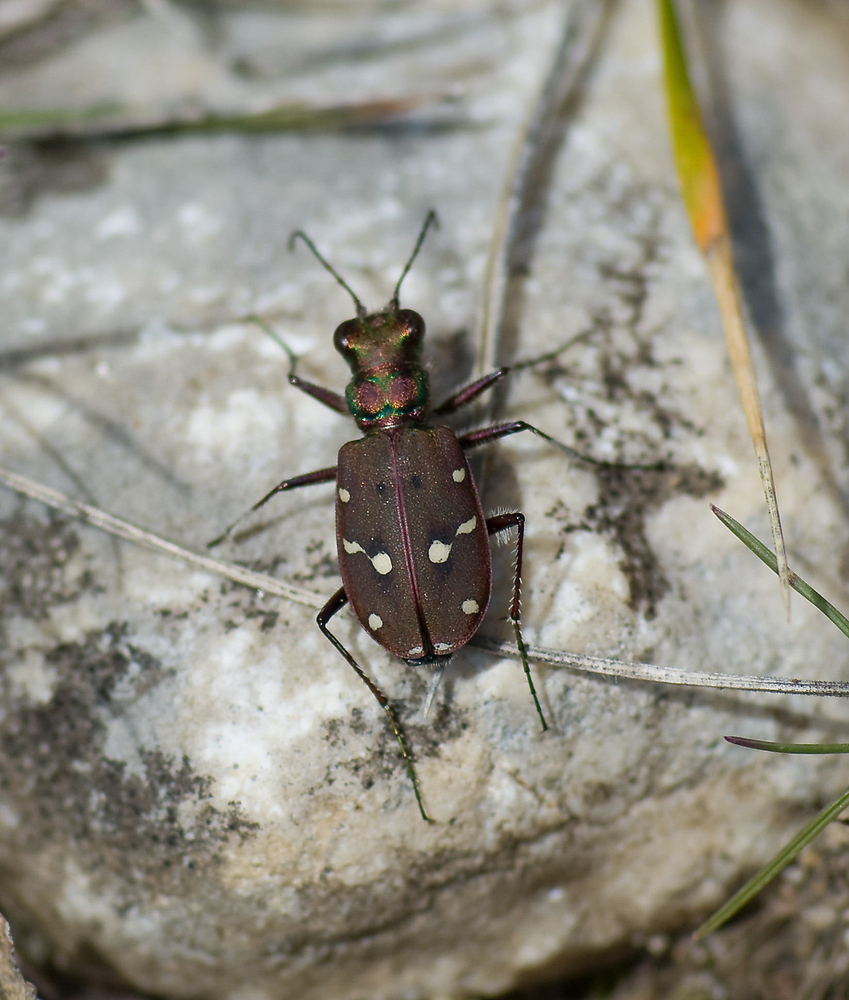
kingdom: Animalia
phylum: Arthropoda
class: Insecta
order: Coleoptera
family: Carabidae
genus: Cicindela
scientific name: Cicindela maroccana
